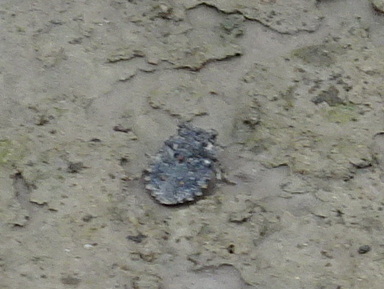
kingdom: Animalia
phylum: Arthropoda
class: Insecta
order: Hemiptera
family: Gelastocoridae
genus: Gelastocoris
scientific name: Gelastocoris oculatus
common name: Toad bug
